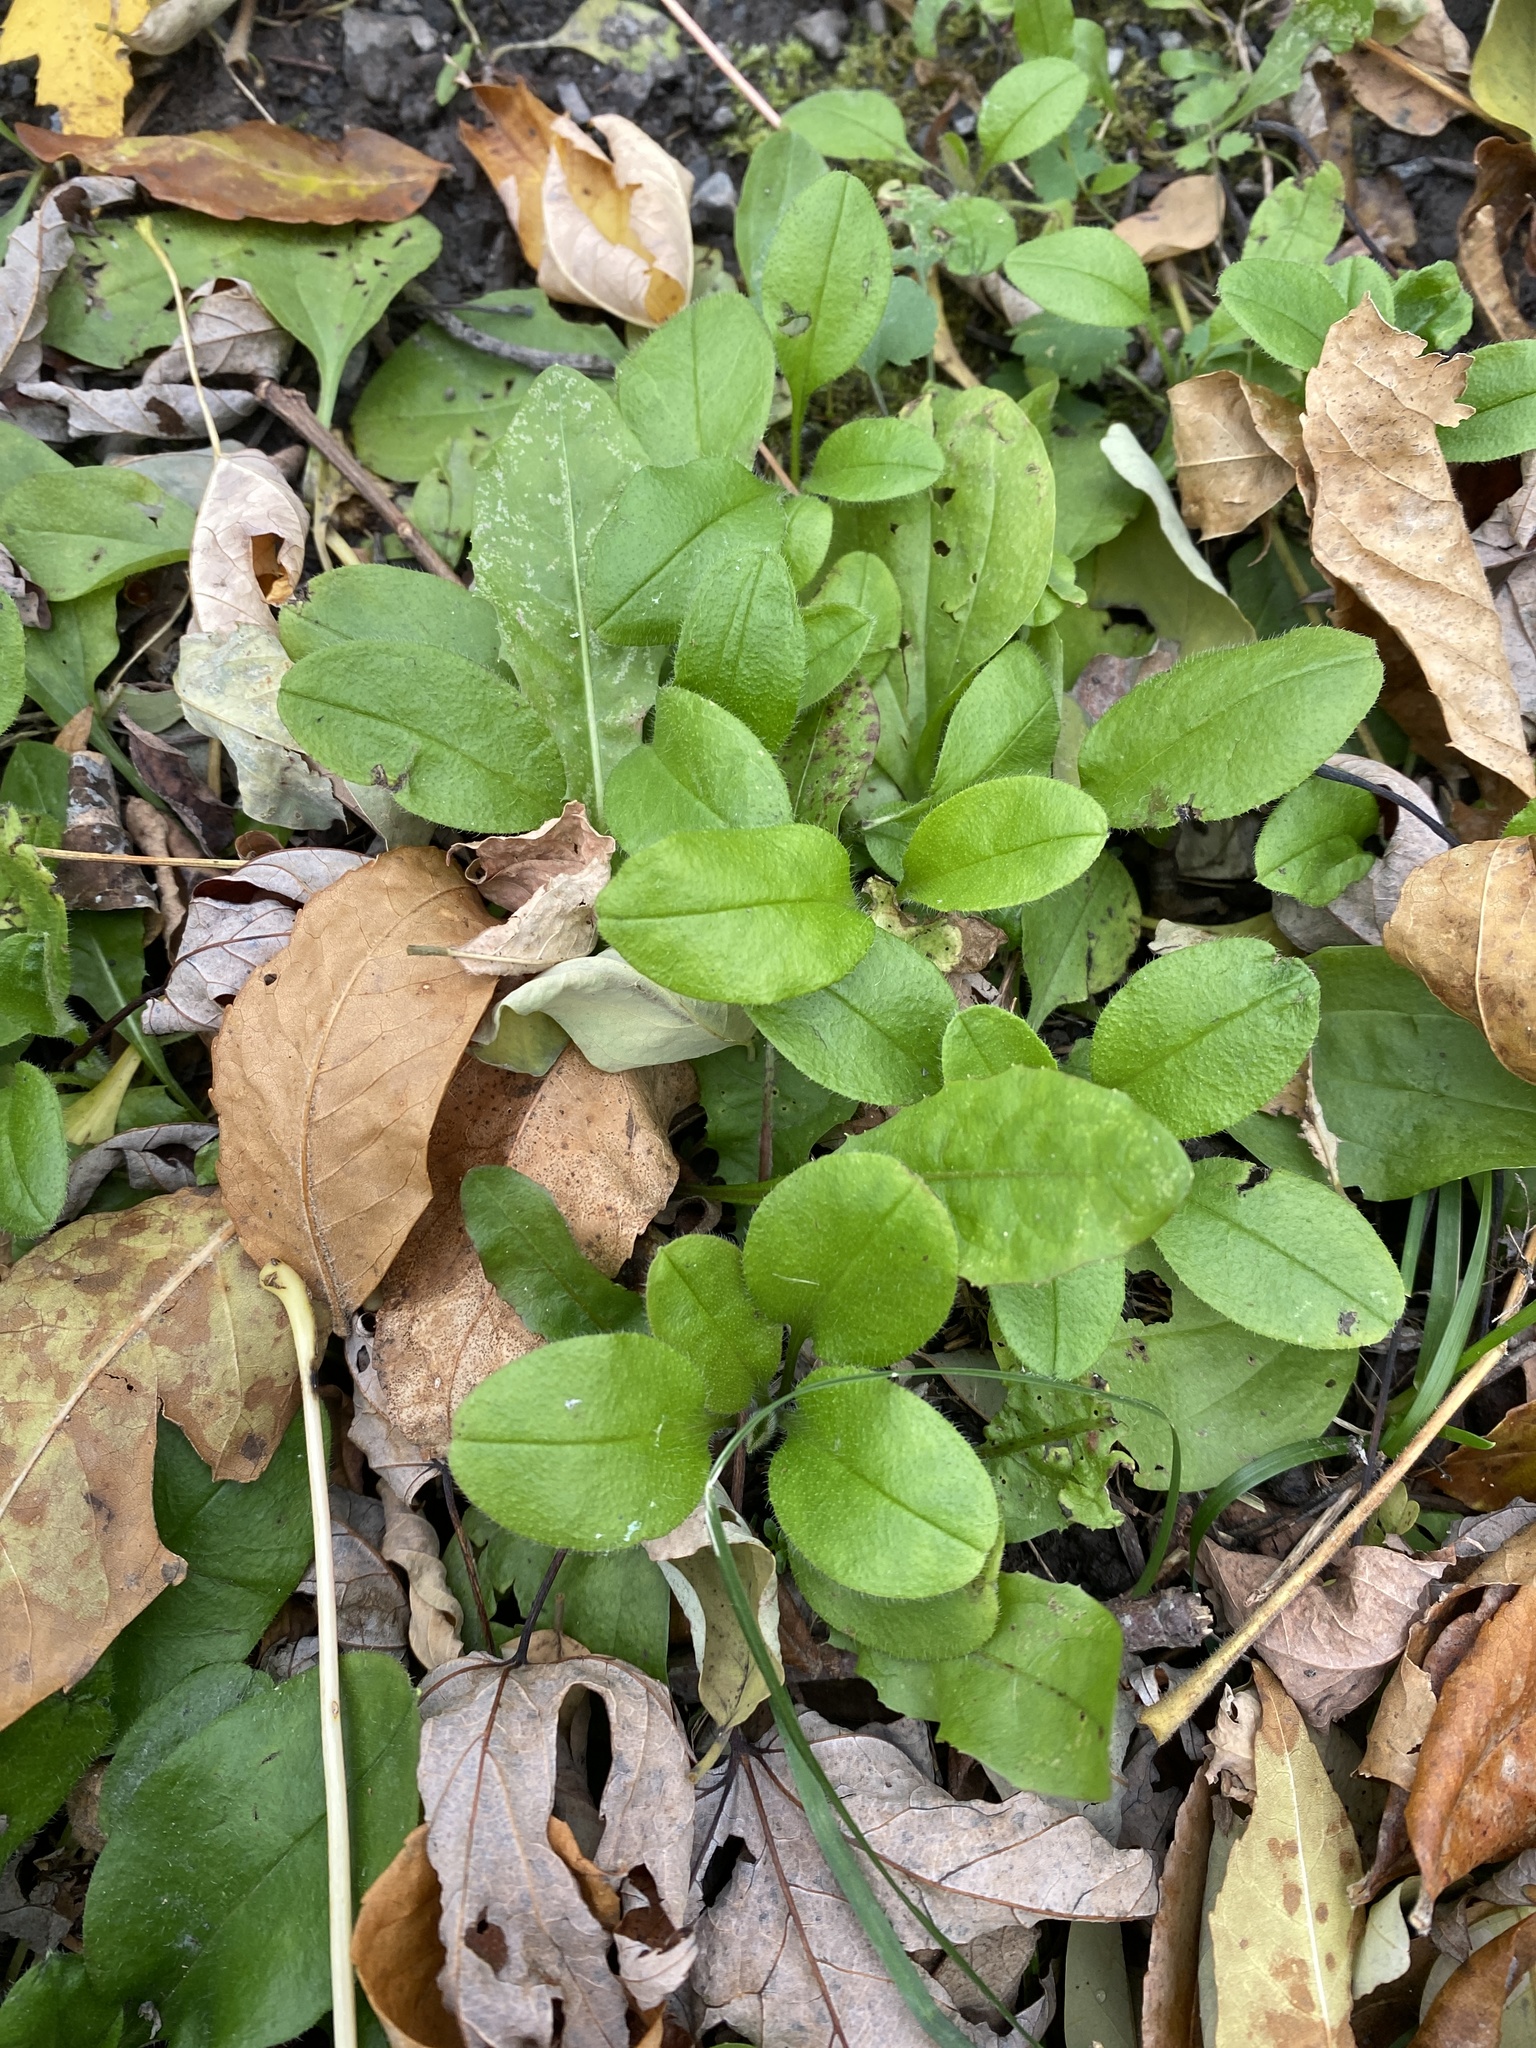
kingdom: Plantae
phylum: Tracheophyta
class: Magnoliopsida
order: Ericales
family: Ericaceae
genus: Epigaea
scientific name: Epigaea repens
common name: Gravelroot
